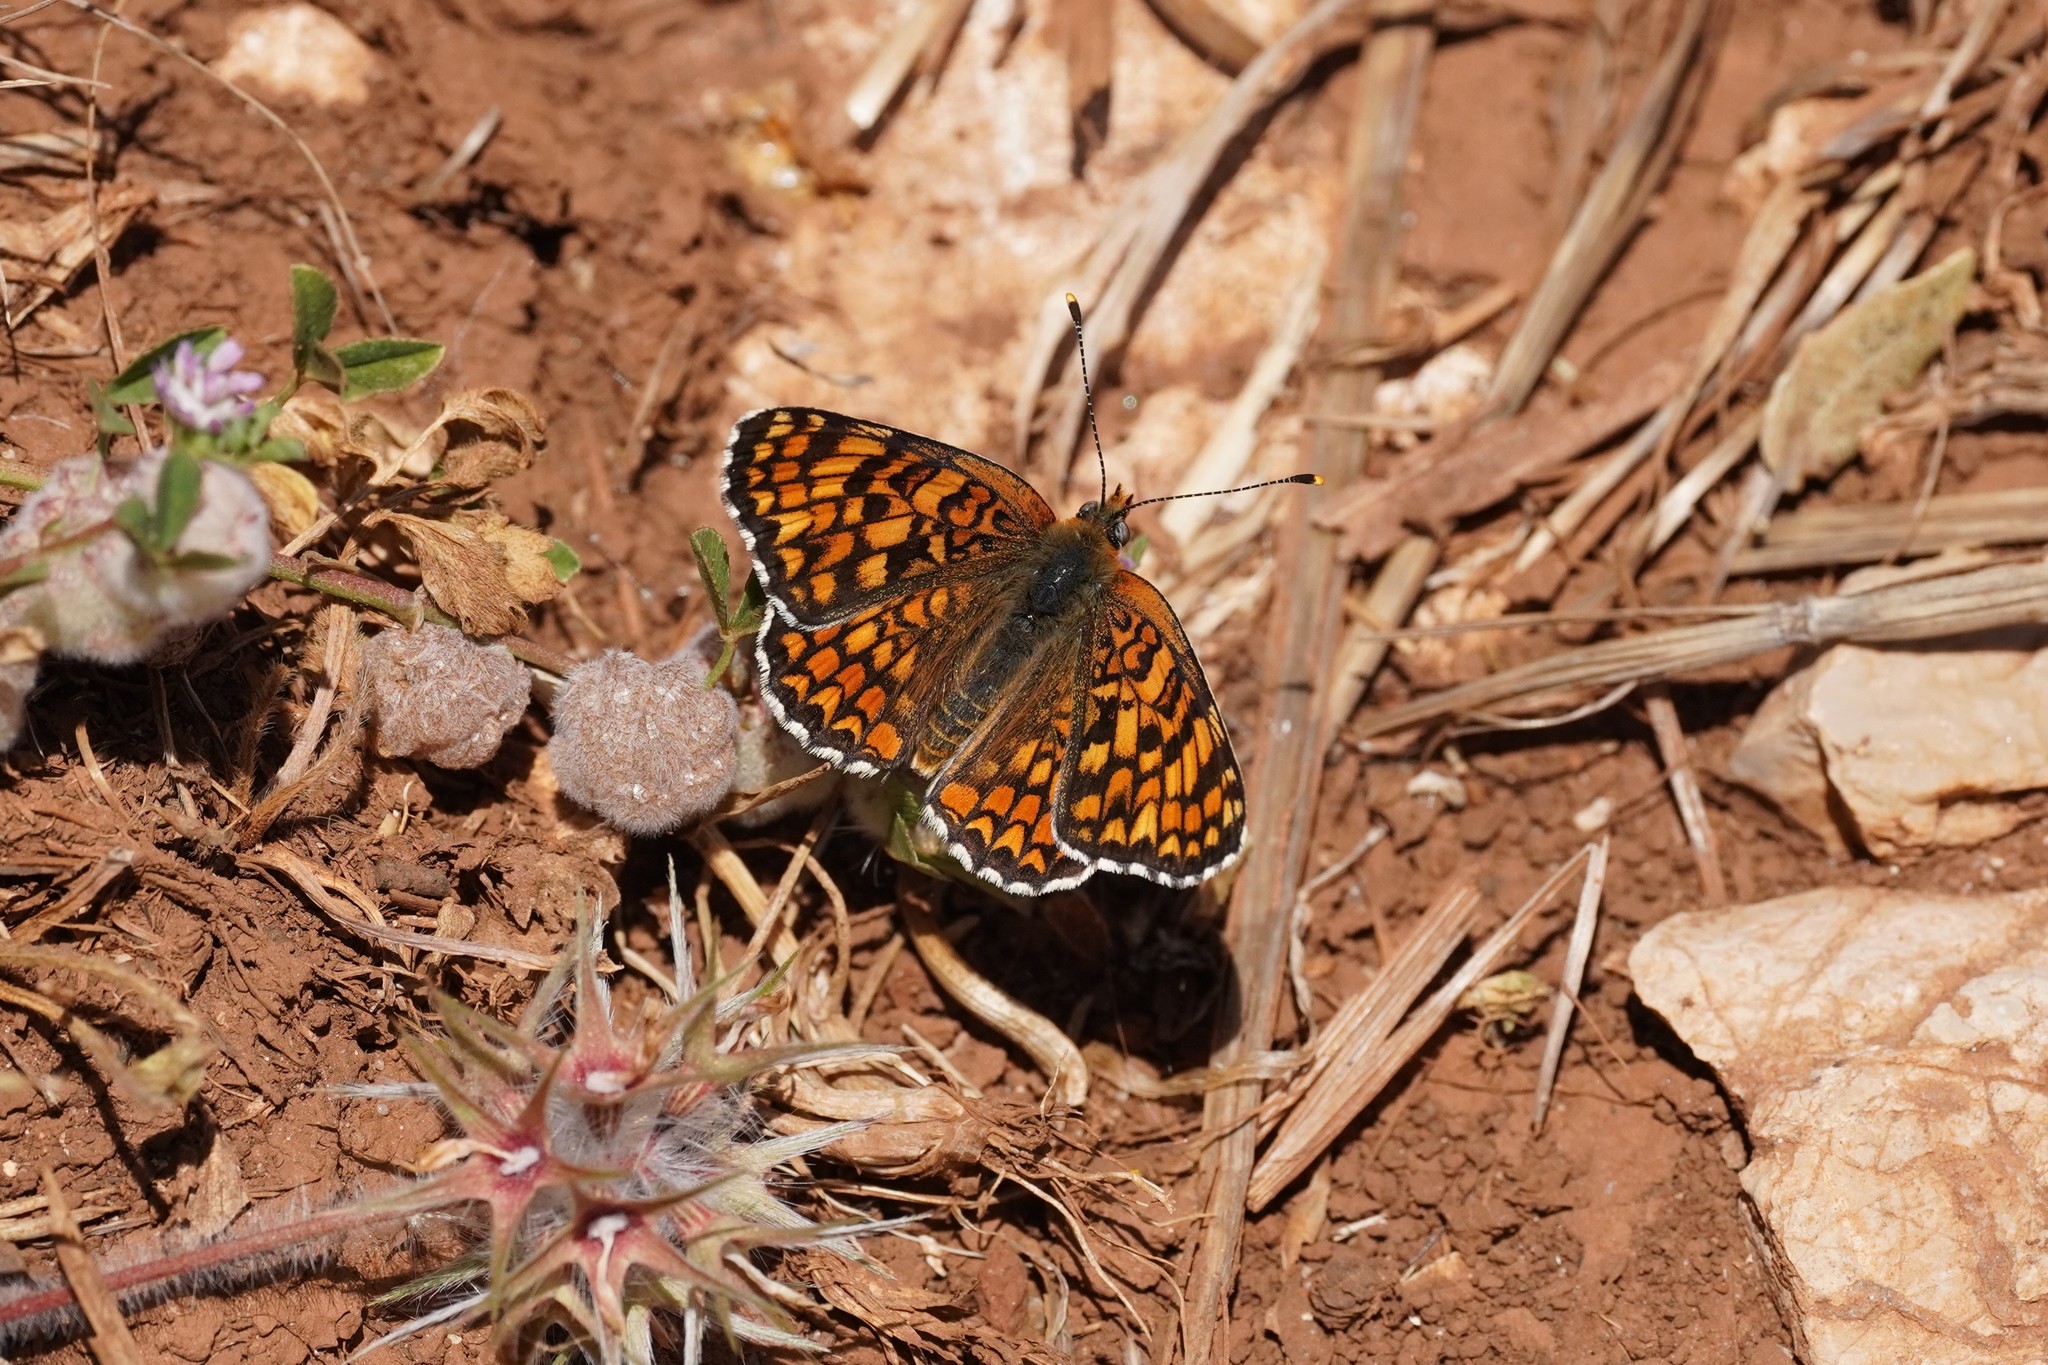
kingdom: Animalia
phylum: Arthropoda
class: Insecta
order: Lepidoptera
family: Nymphalidae
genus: Melitaea
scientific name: Melitaea phoebe
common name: Knapweed fritillary
